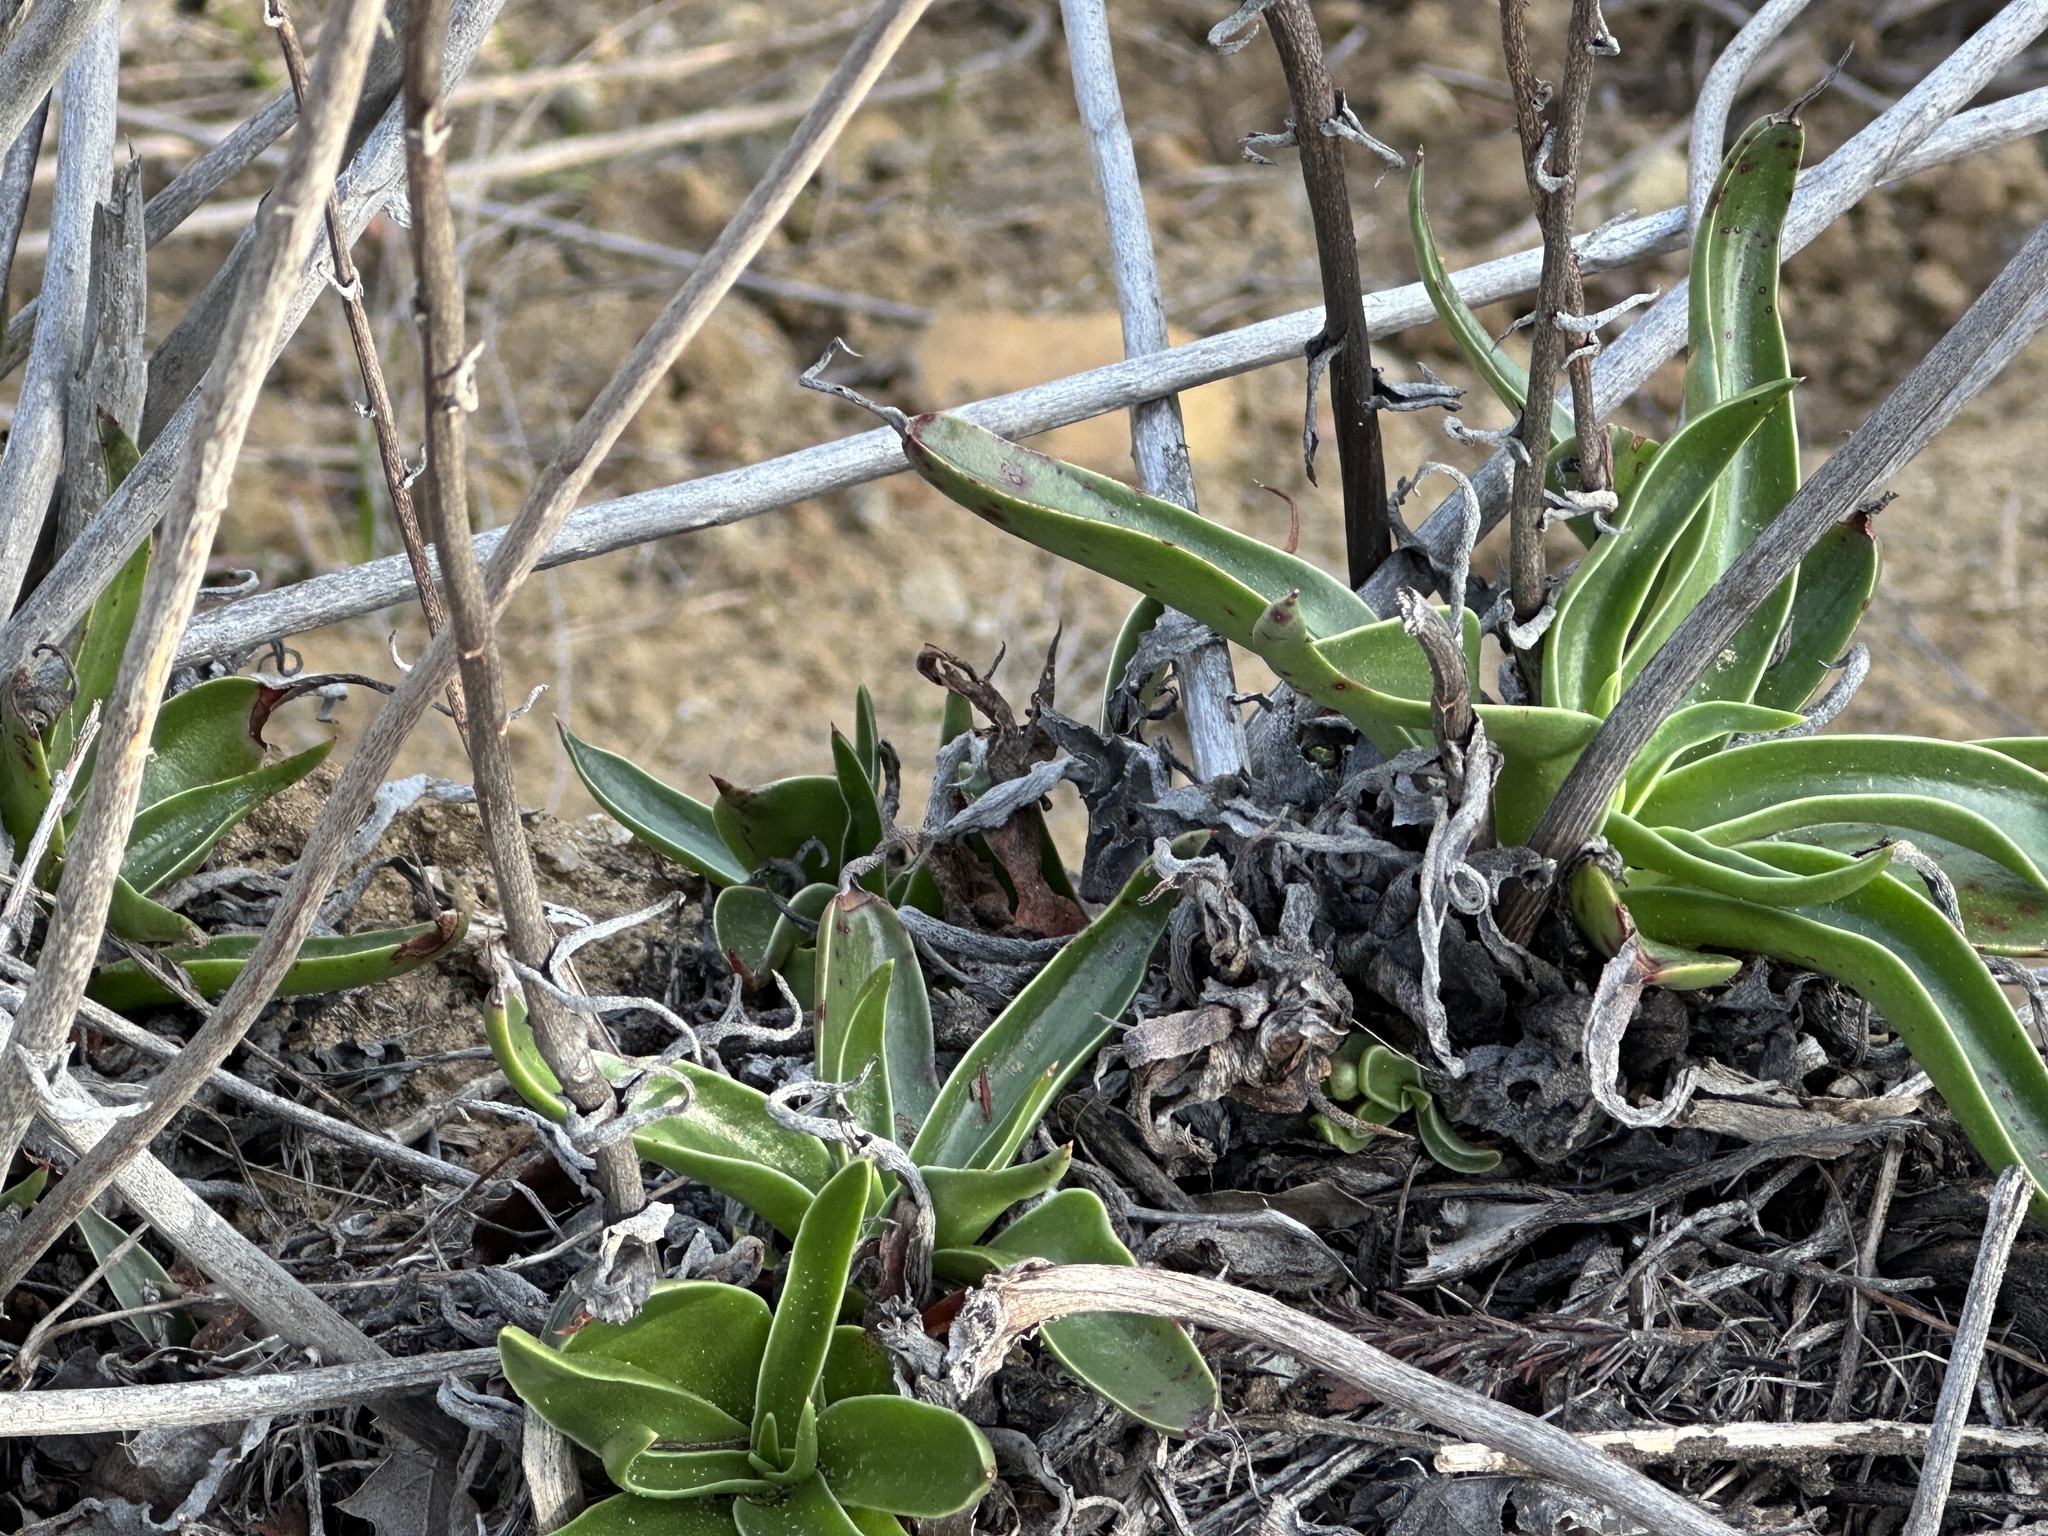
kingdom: Plantae
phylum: Tracheophyta
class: Magnoliopsida
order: Saxifragales
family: Crassulaceae
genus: Dudleya
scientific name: Dudleya lanceolata
